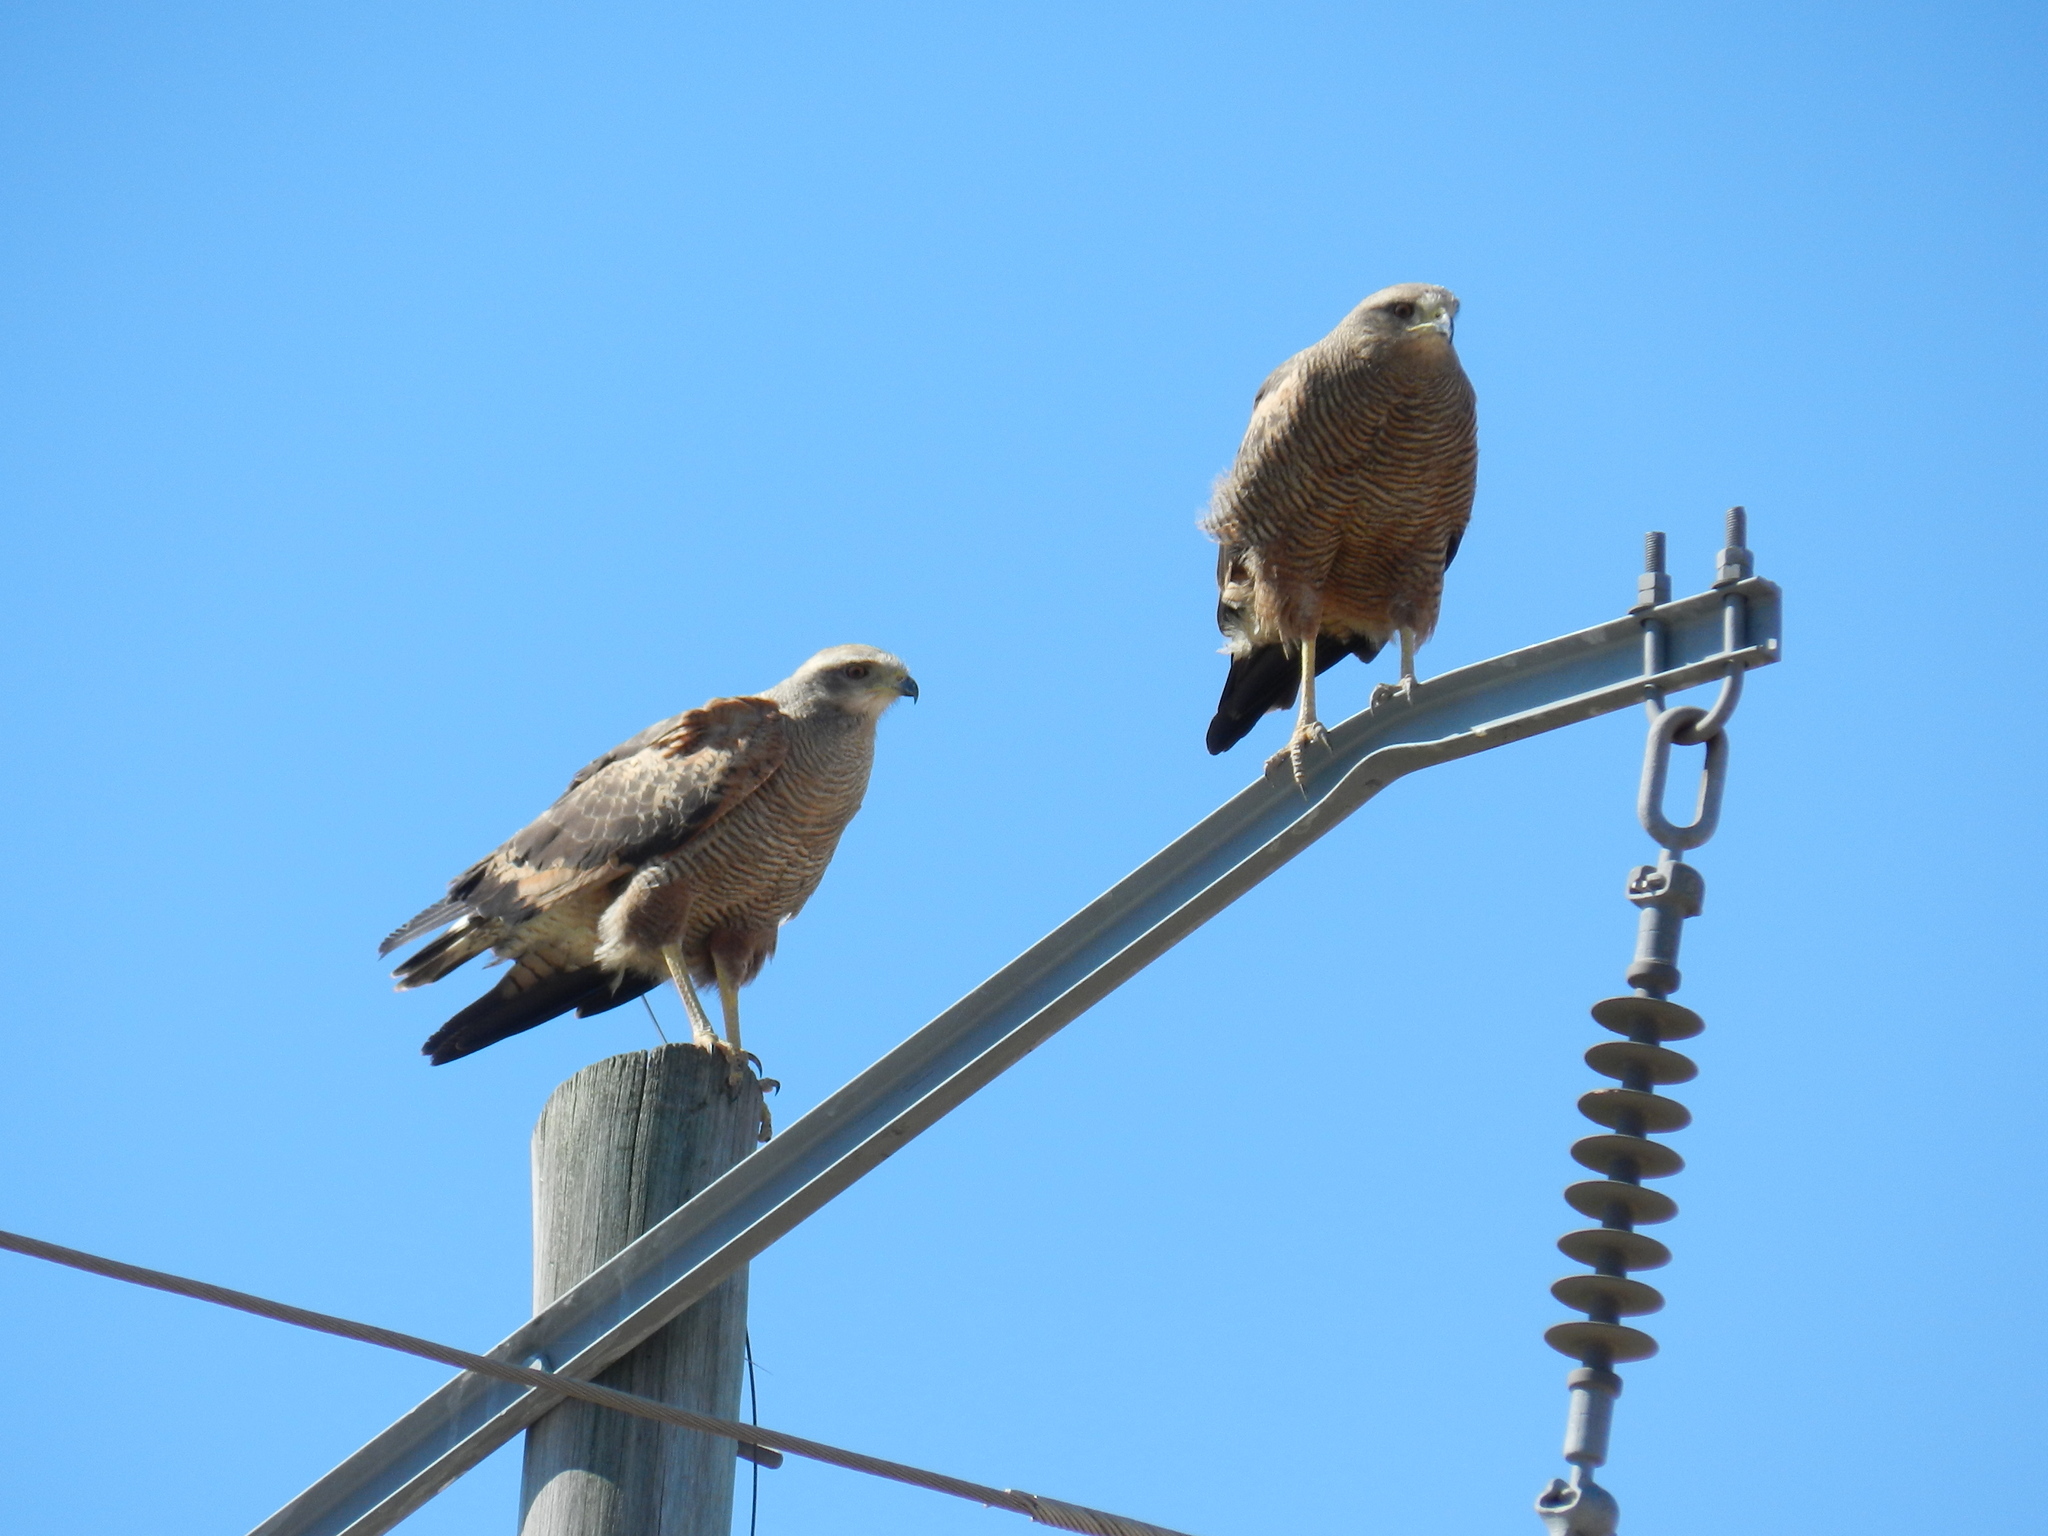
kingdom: Animalia
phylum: Chordata
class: Aves
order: Accipitriformes
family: Accipitridae
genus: Buteogallus
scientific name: Buteogallus meridionalis
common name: Savanna hawk
